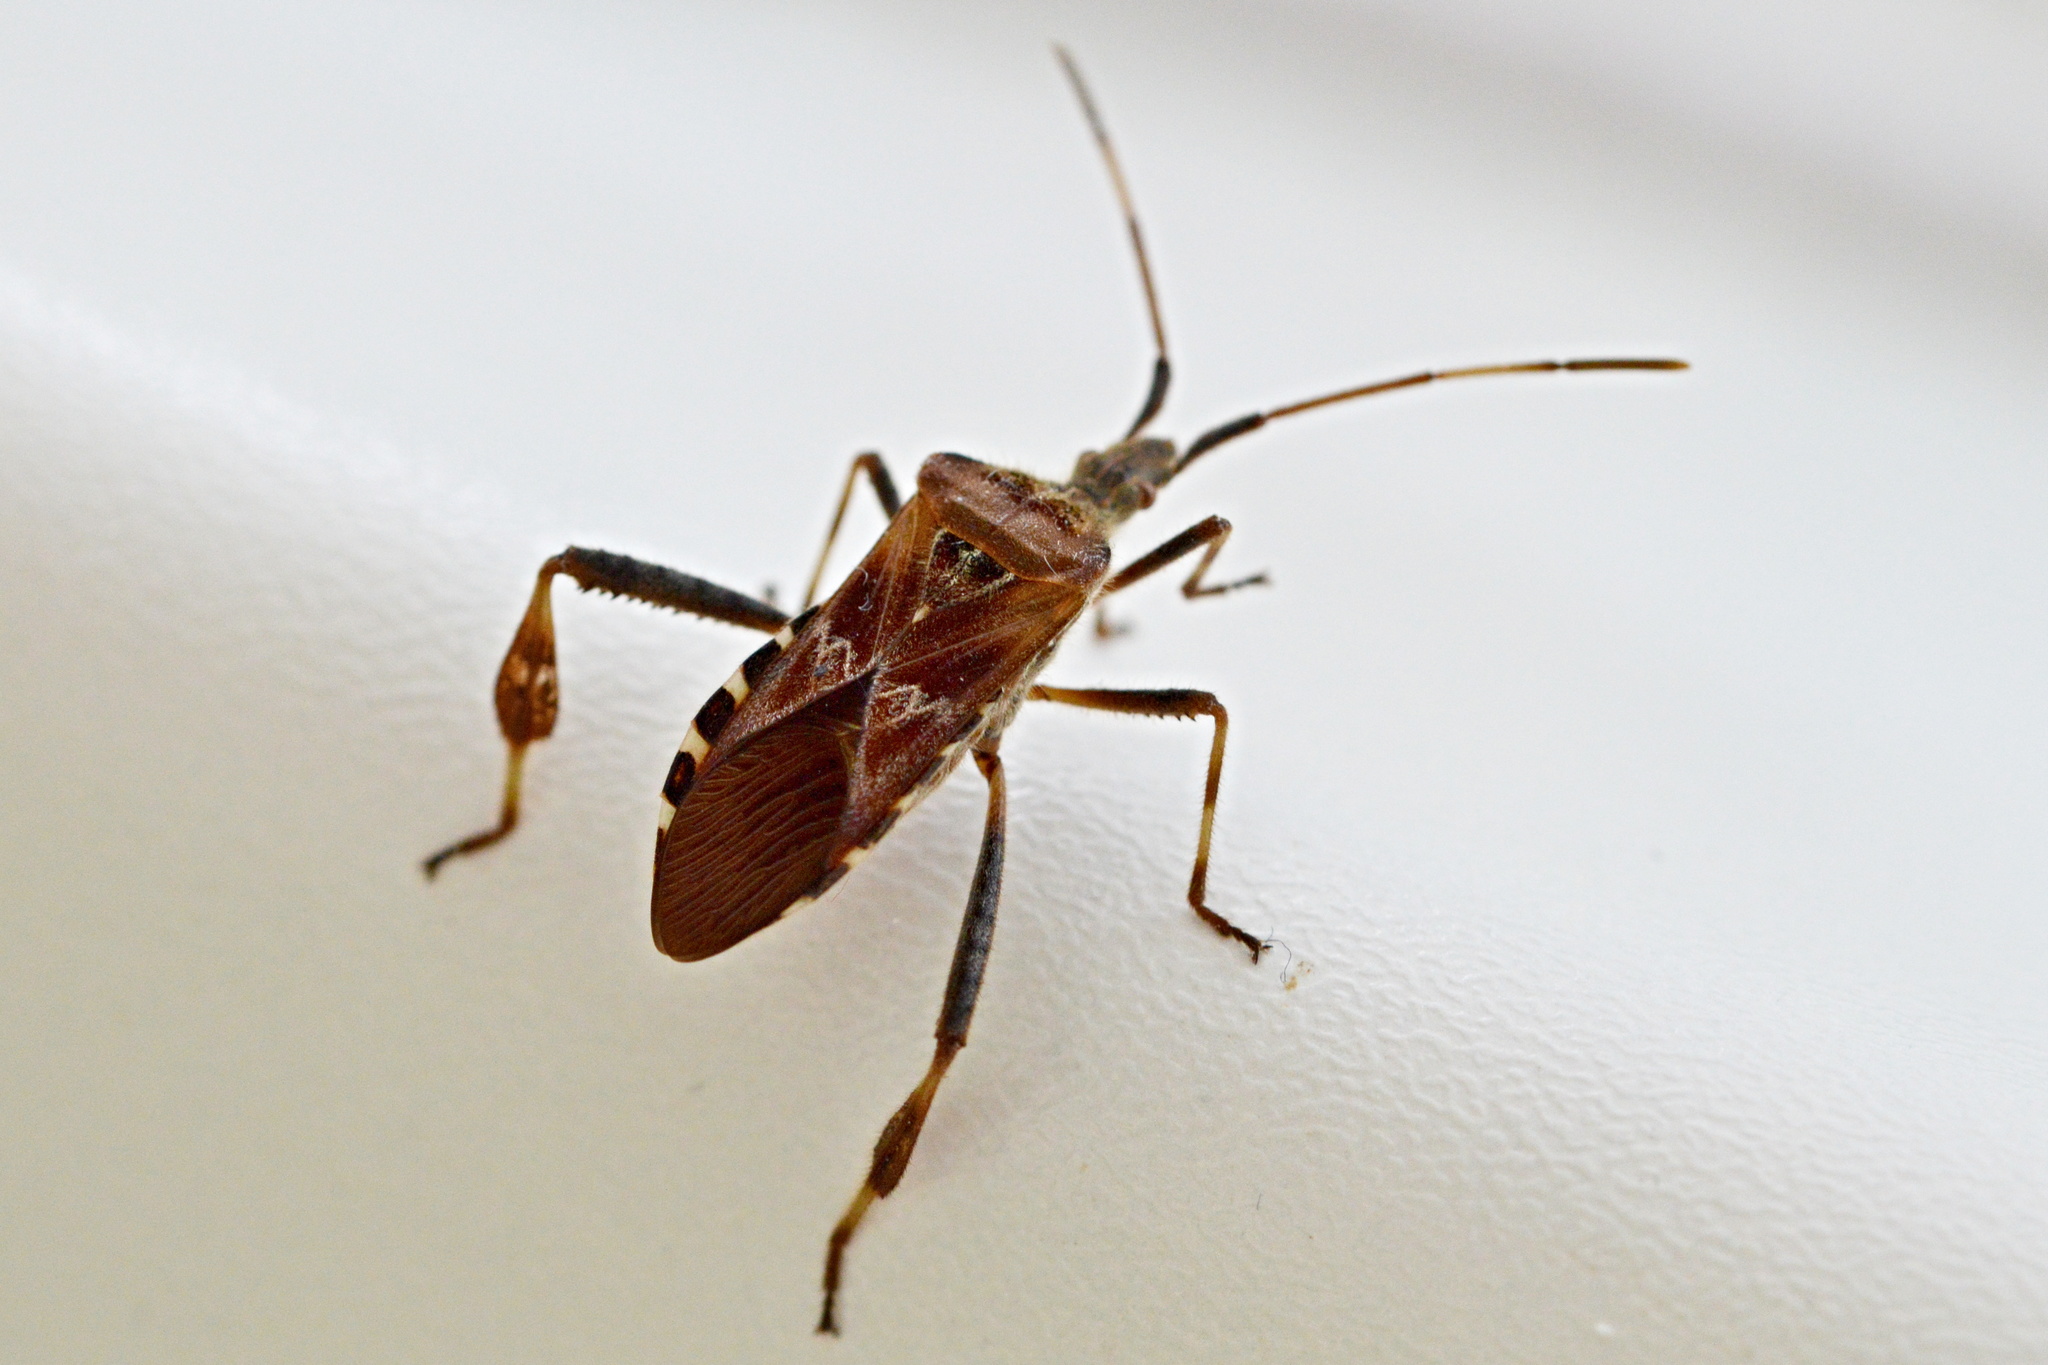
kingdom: Animalia
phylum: Arthropoda
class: Insecta
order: Hemiptera
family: Coreidae
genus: Leptoglossus
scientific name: Leptoglossus occidentalis
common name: Western conifer-seed bug
